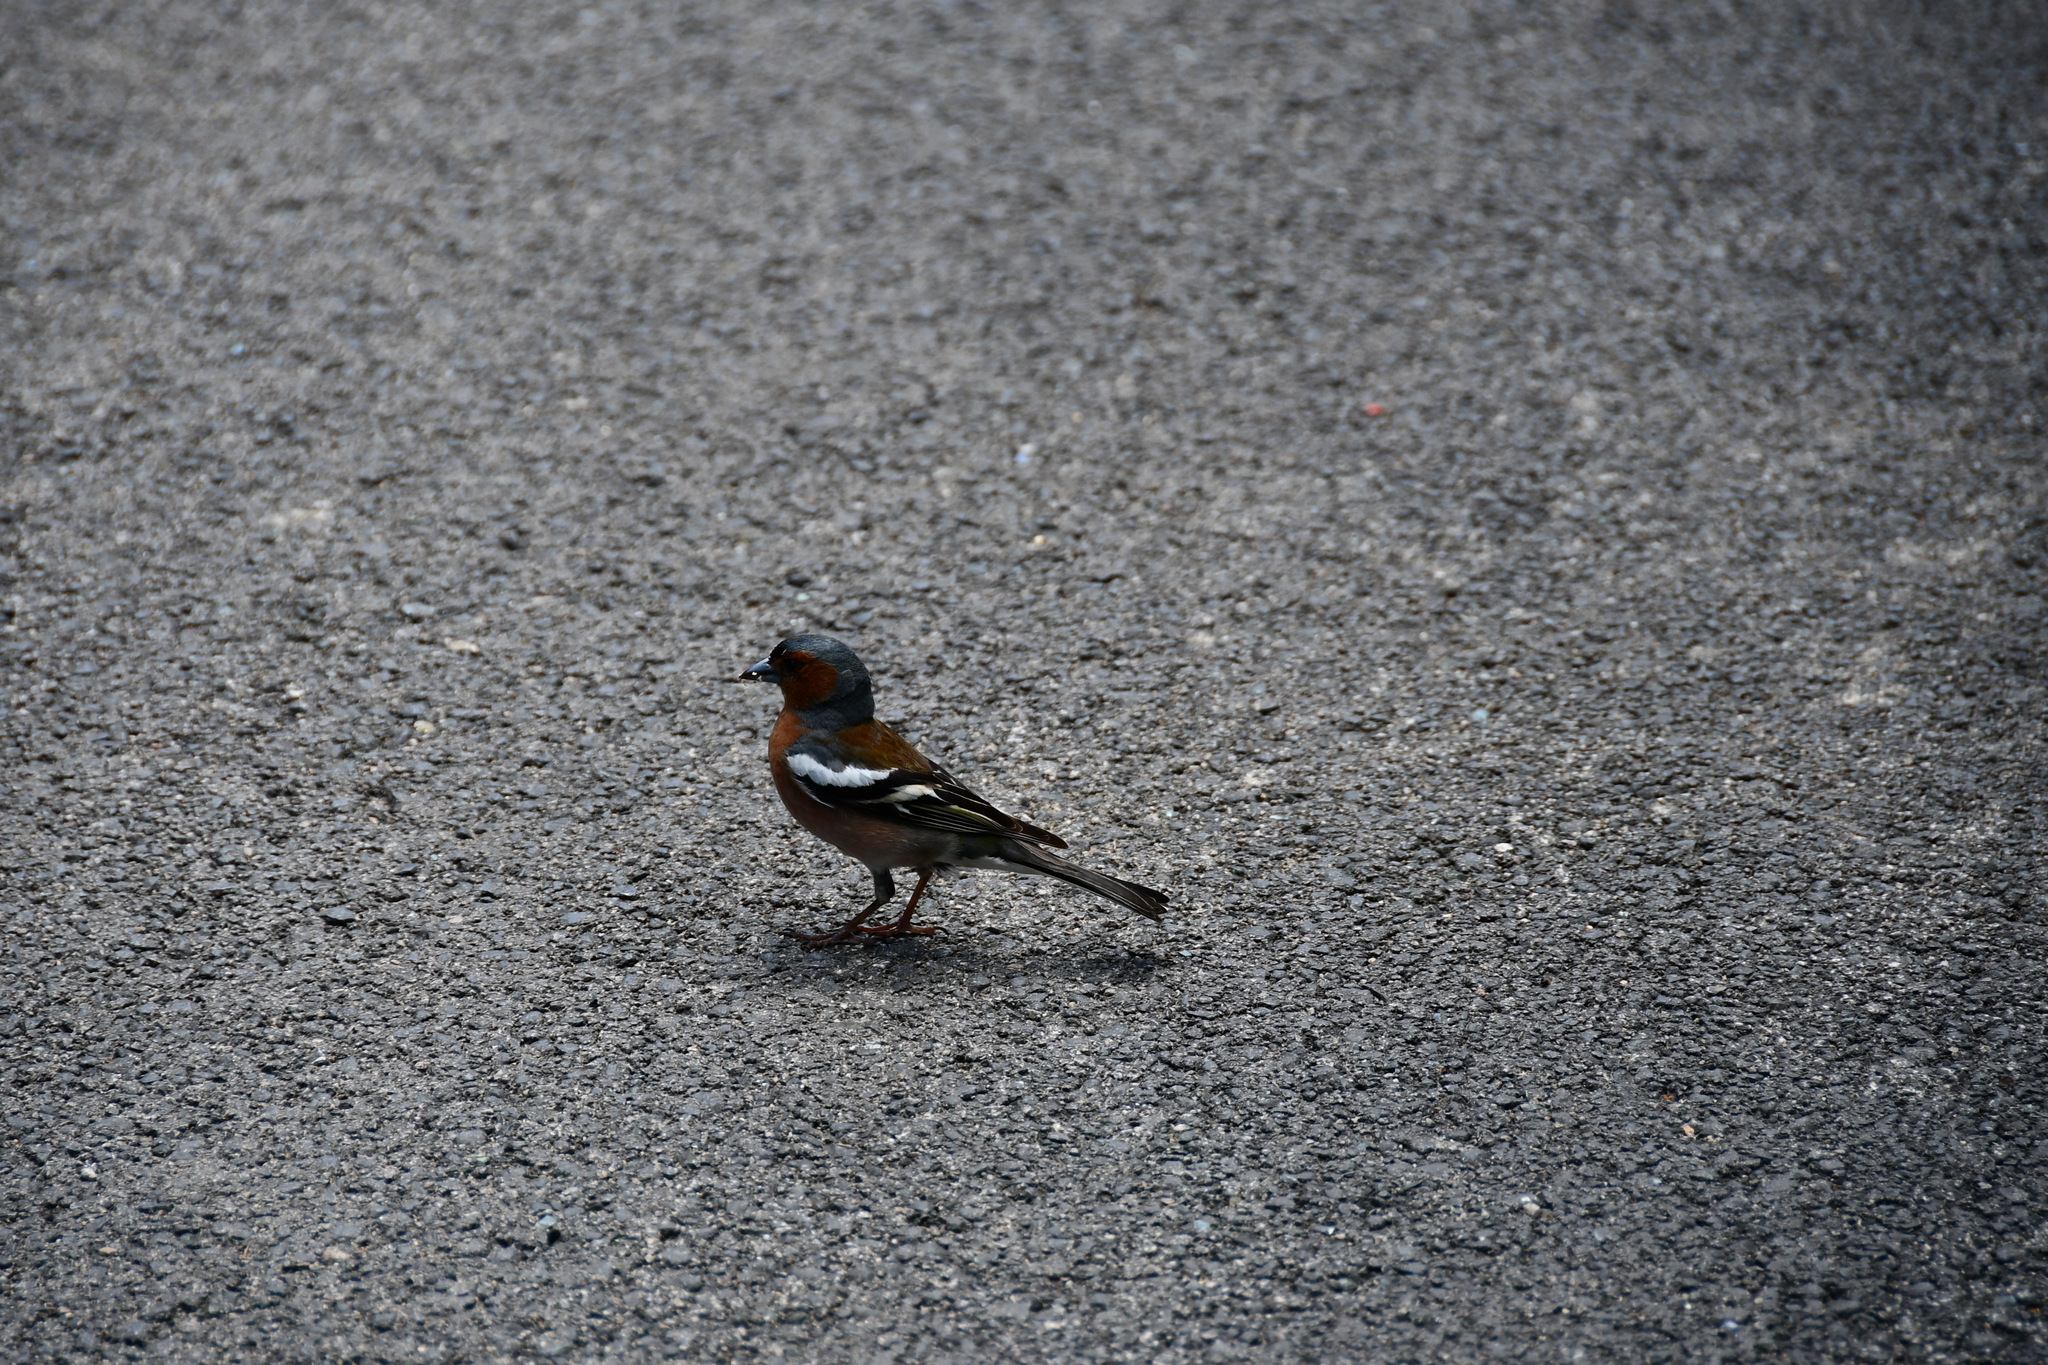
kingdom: Animalia
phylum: Chordata
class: Aves
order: Passeriformes
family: Fringillidae
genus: Fringilla
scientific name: Fringilla coelebs
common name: Common chaffinch
